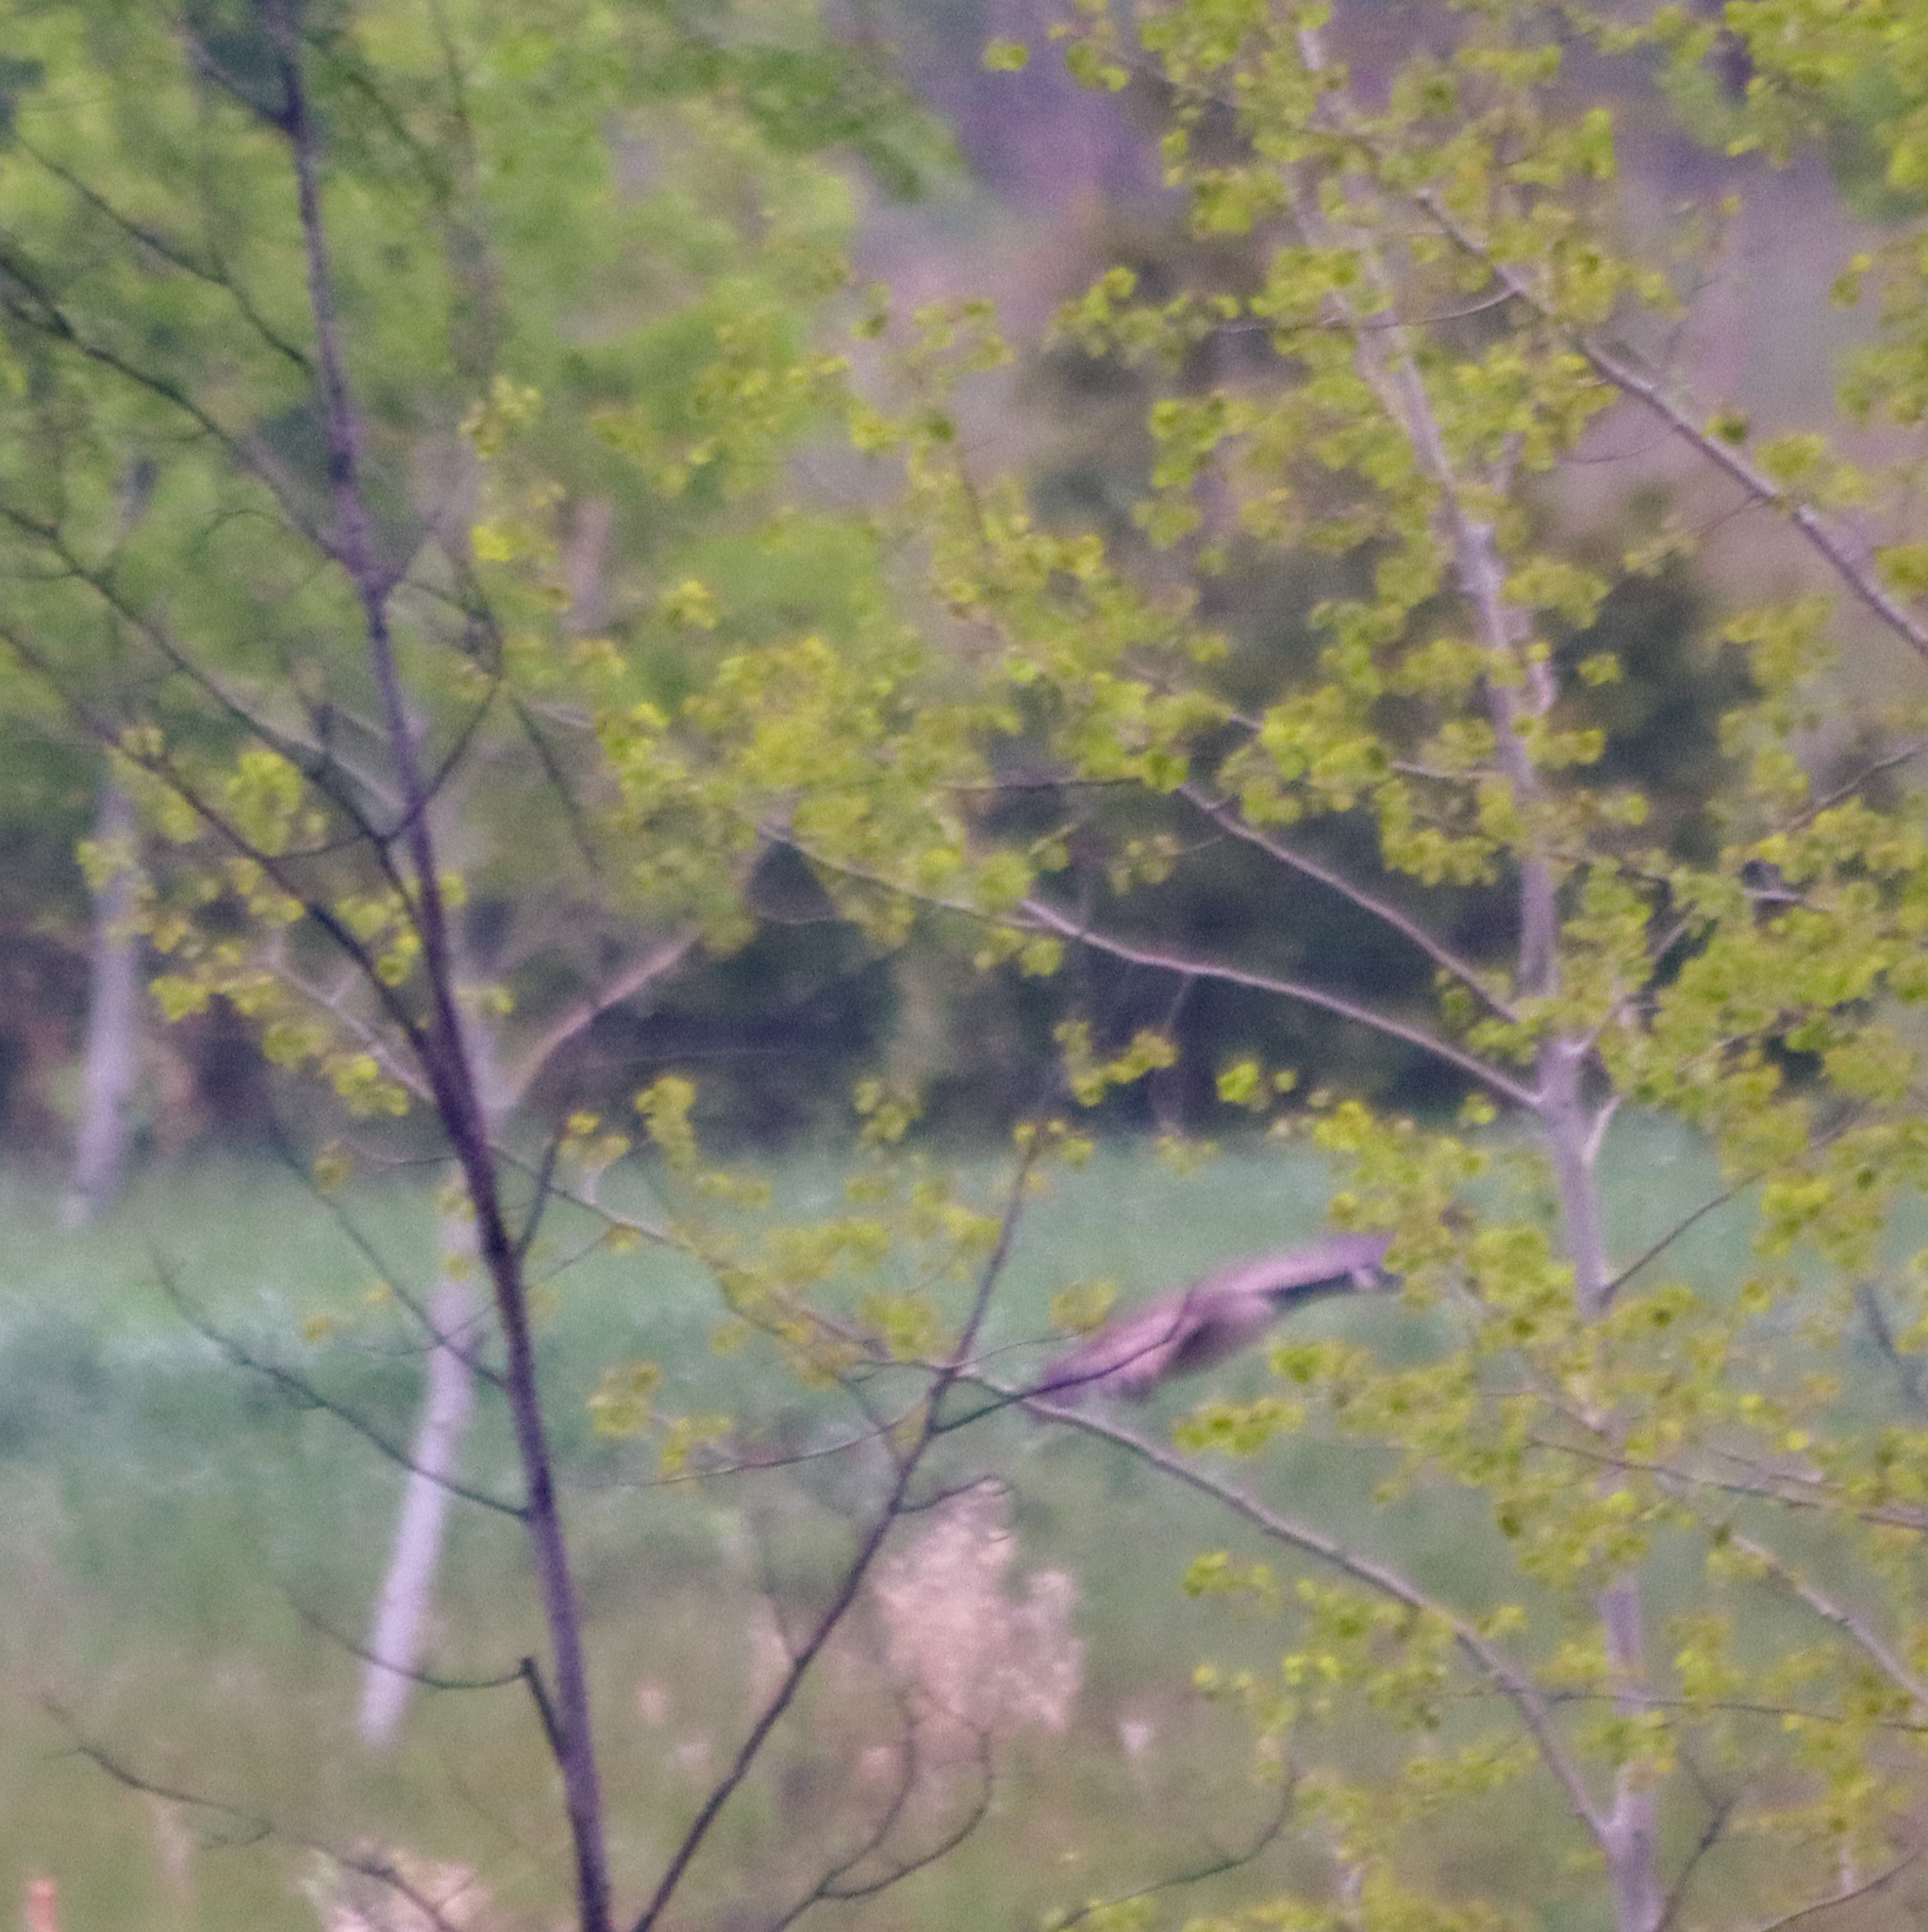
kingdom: Animalia
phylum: Chordata
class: Aves
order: Anseriformes
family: Anatidae
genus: Branta
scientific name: Branta canadensis
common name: Canada goose
